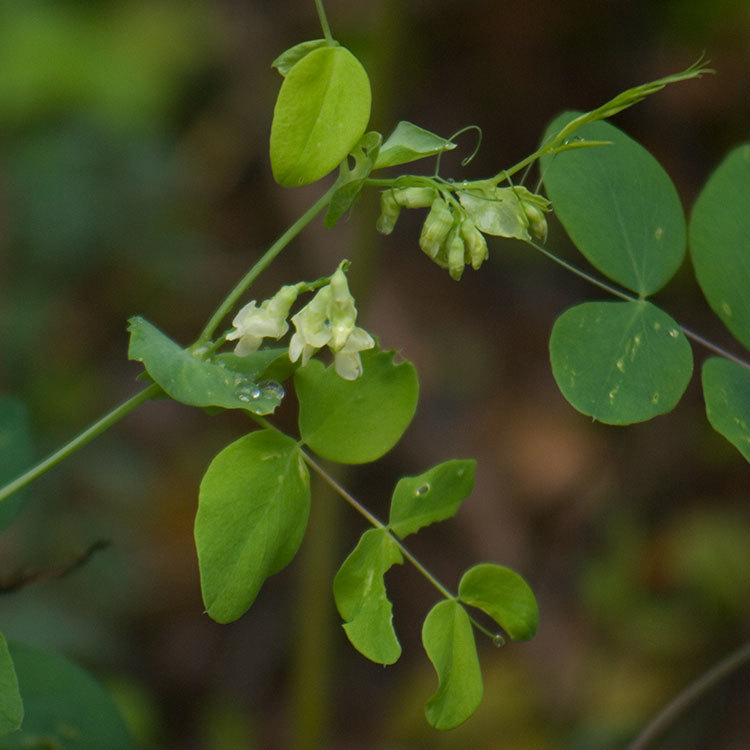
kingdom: Plantae
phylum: Tracheophyta
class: Magnoliopsida
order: Fabales
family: Fabaceae
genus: Lathyrus
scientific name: Lathyrus ochroleucus
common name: Pale vetchling
